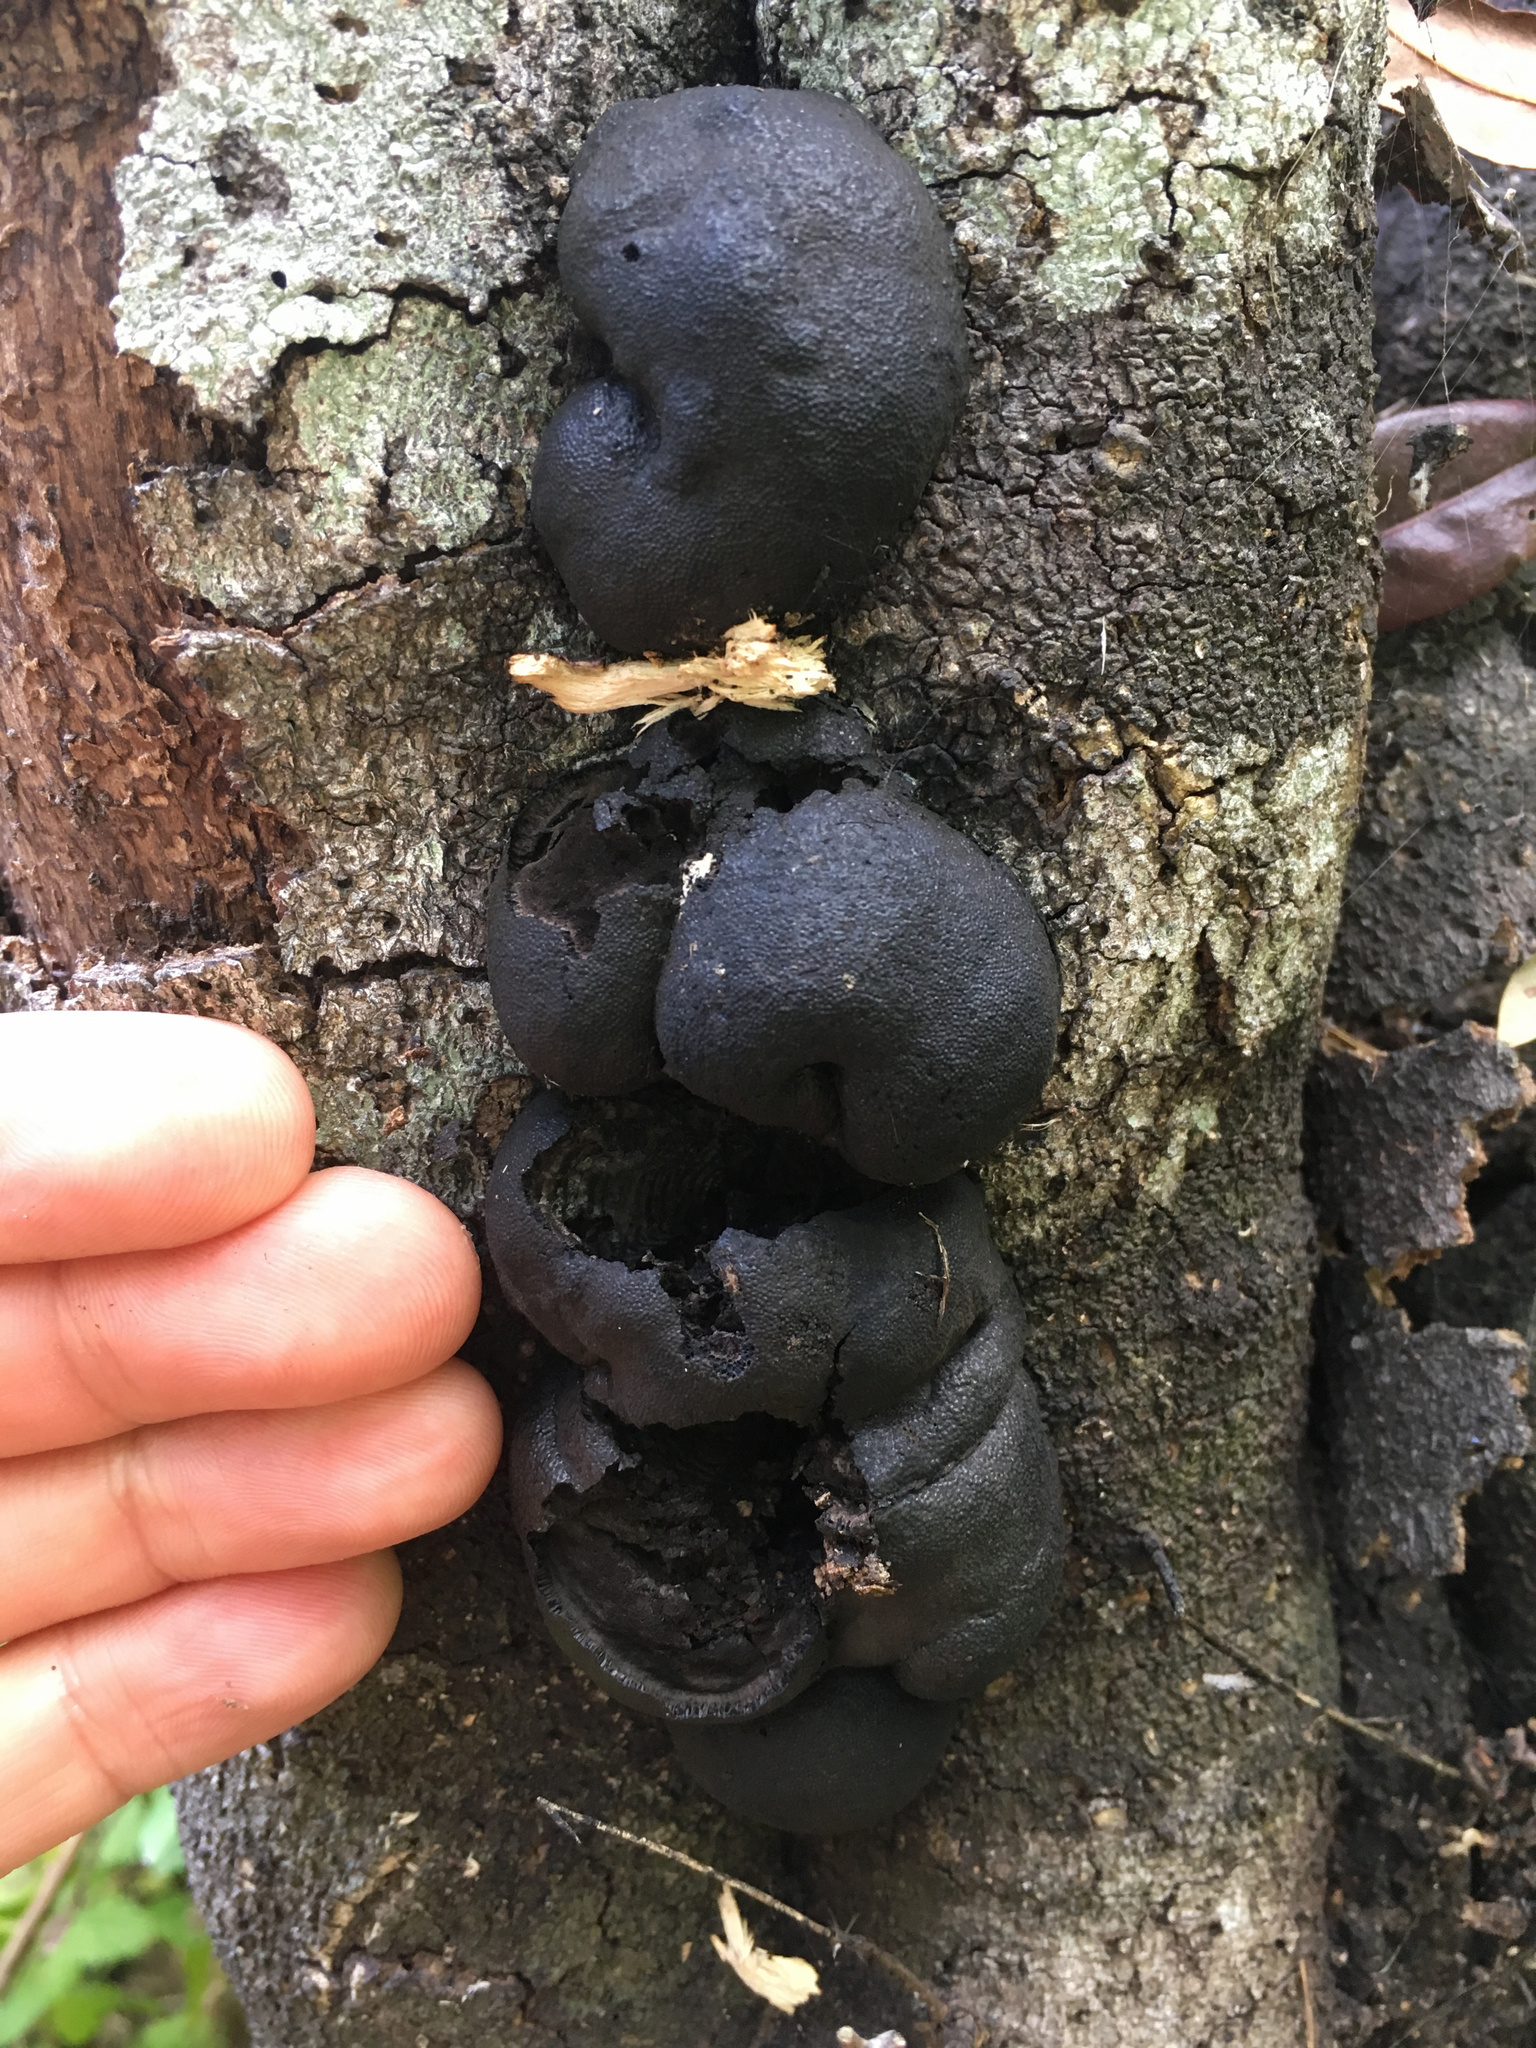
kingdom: Fungi
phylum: Ascomycota
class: Sordariomycetes
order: Xylariales
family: Hypoxylaceae
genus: Daldinia
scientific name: Daldinia
